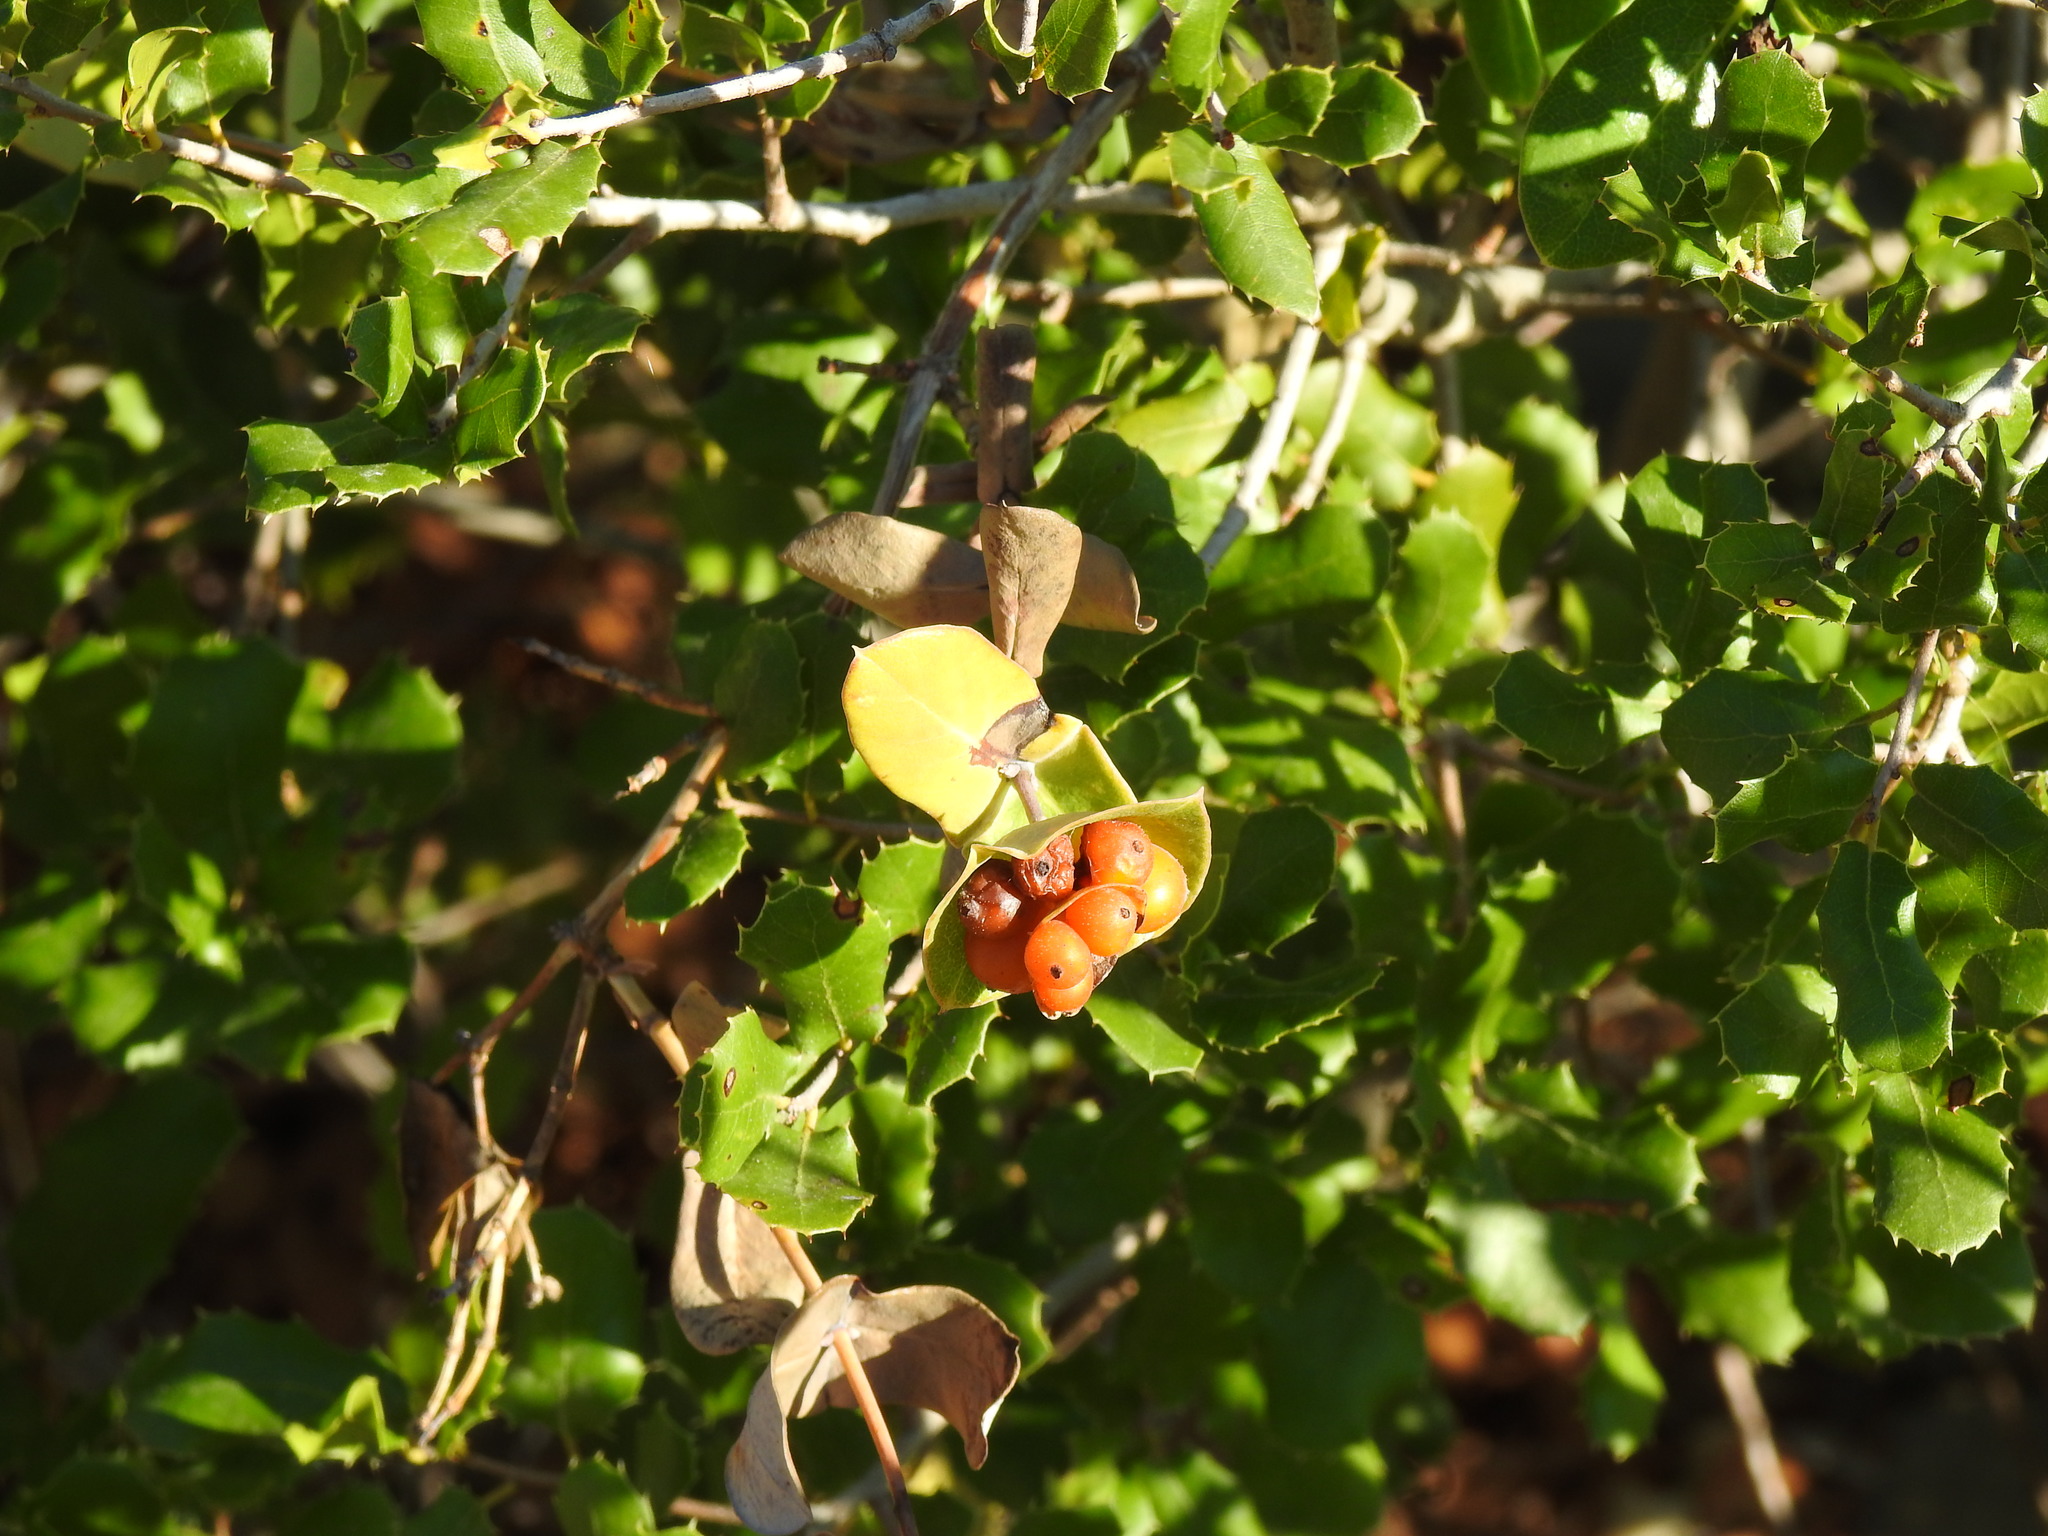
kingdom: Plantae
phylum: Tracheophyta
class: Magnoliopsida
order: Dipsacales
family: Caprifoliaceae
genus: Lonicera
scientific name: Lonicera implexa
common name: Minorca honeysuckle
